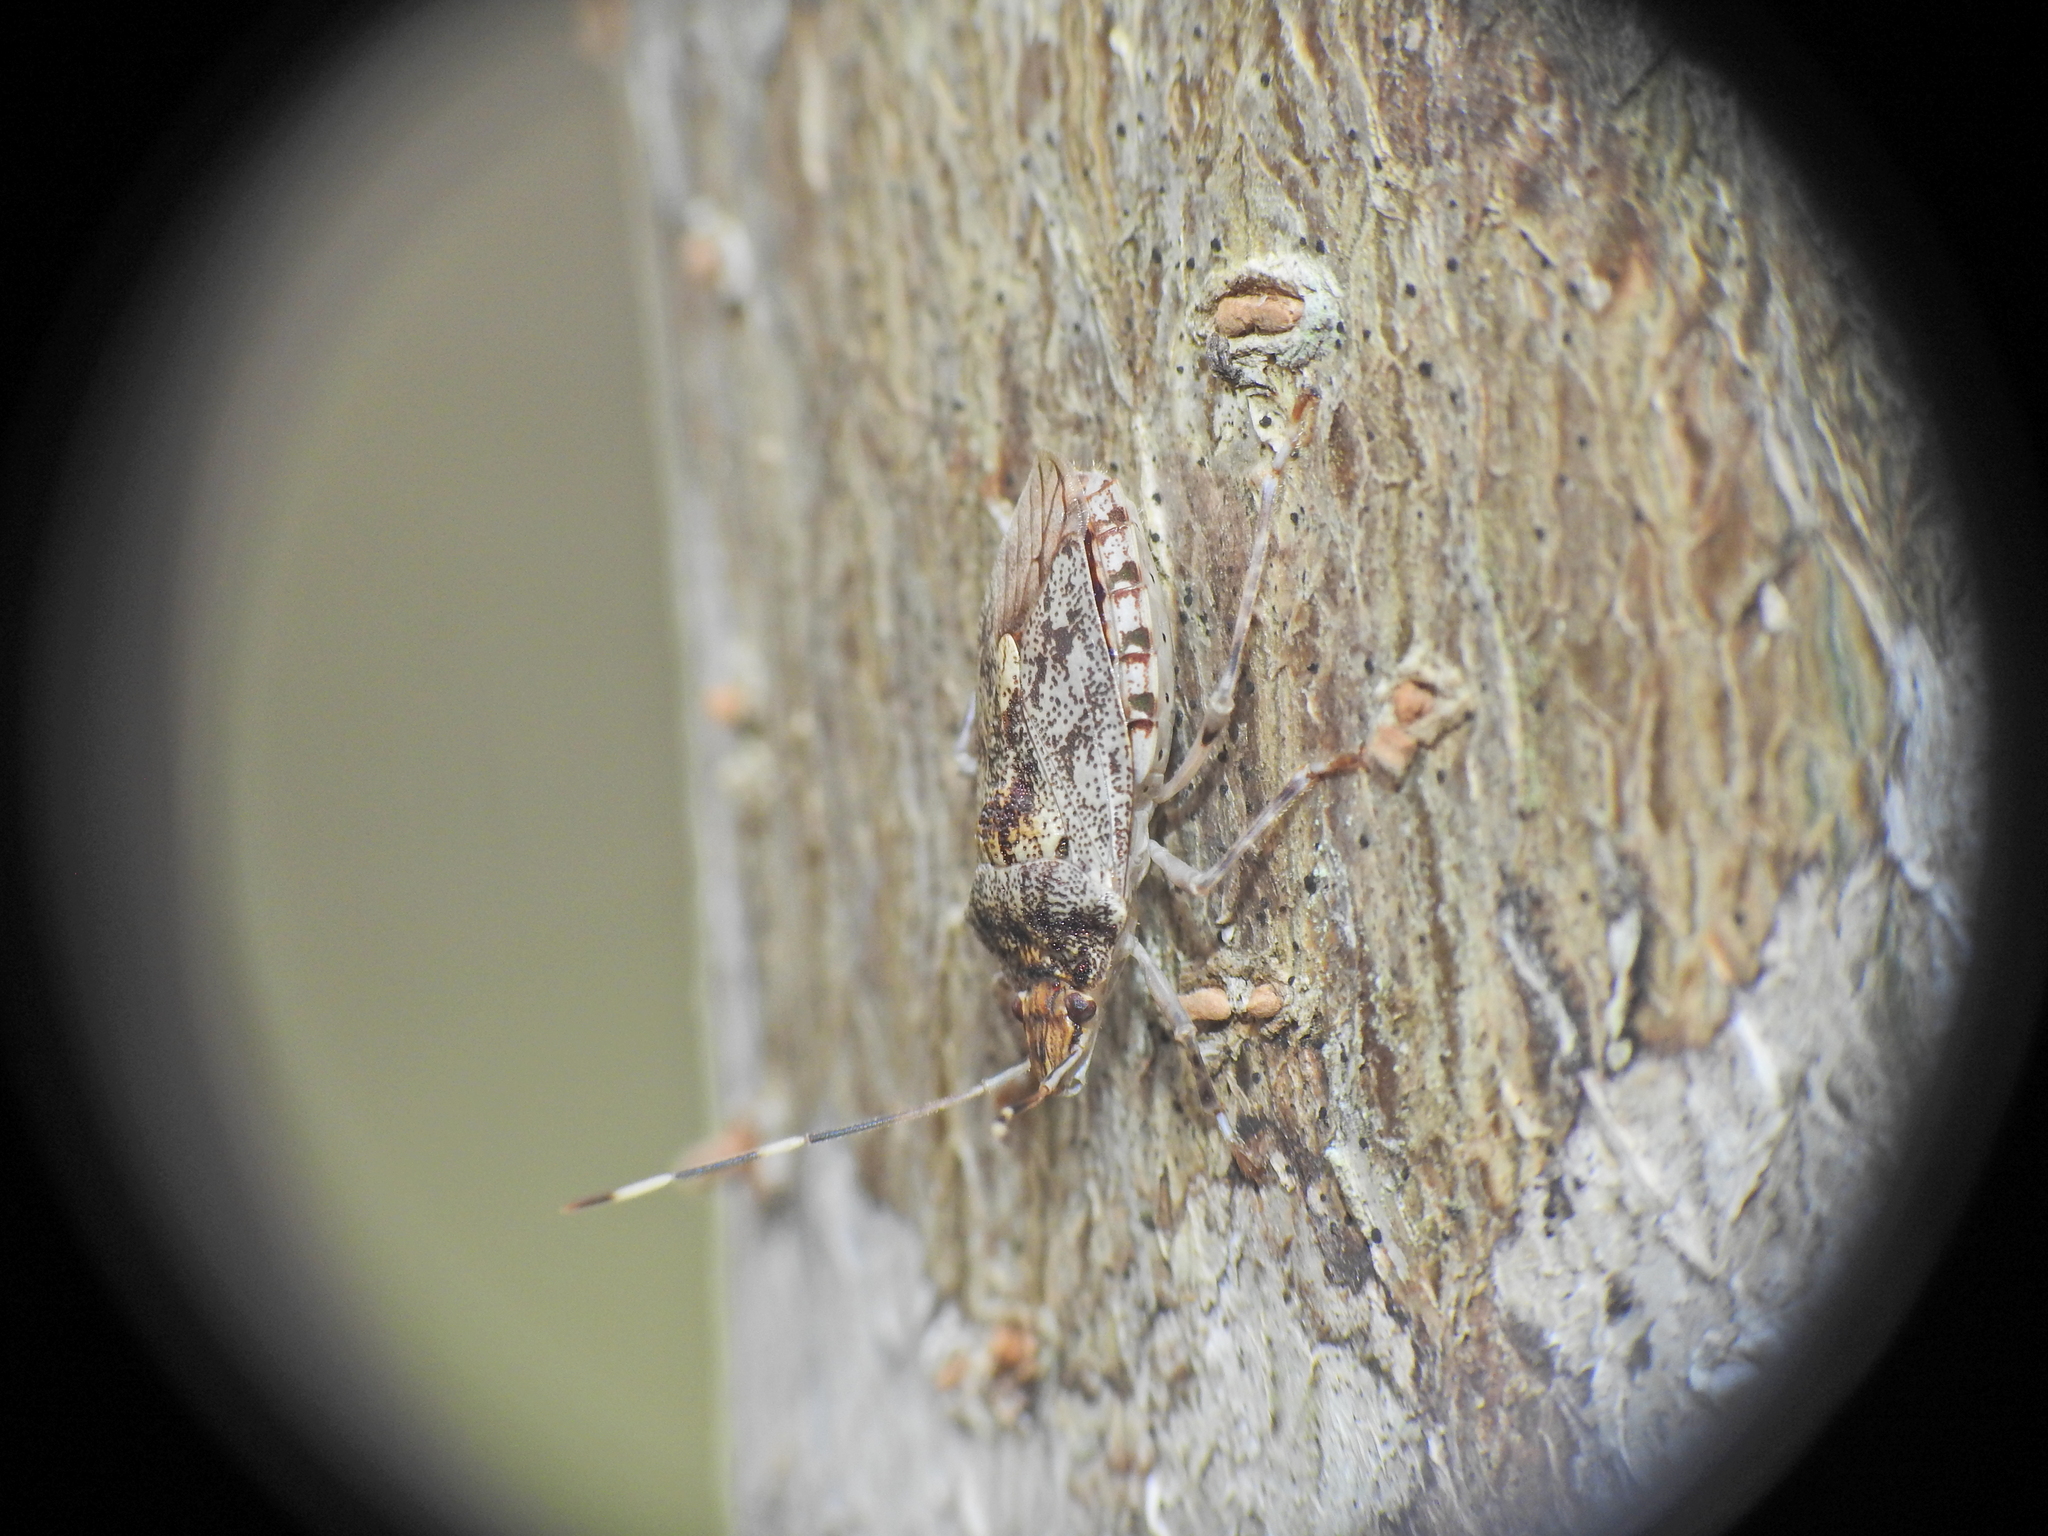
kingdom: Animalia
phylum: Arthropoda
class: Insecta
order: Hemiptera
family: Pentatomidae
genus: Bathrus
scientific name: Bathrus
